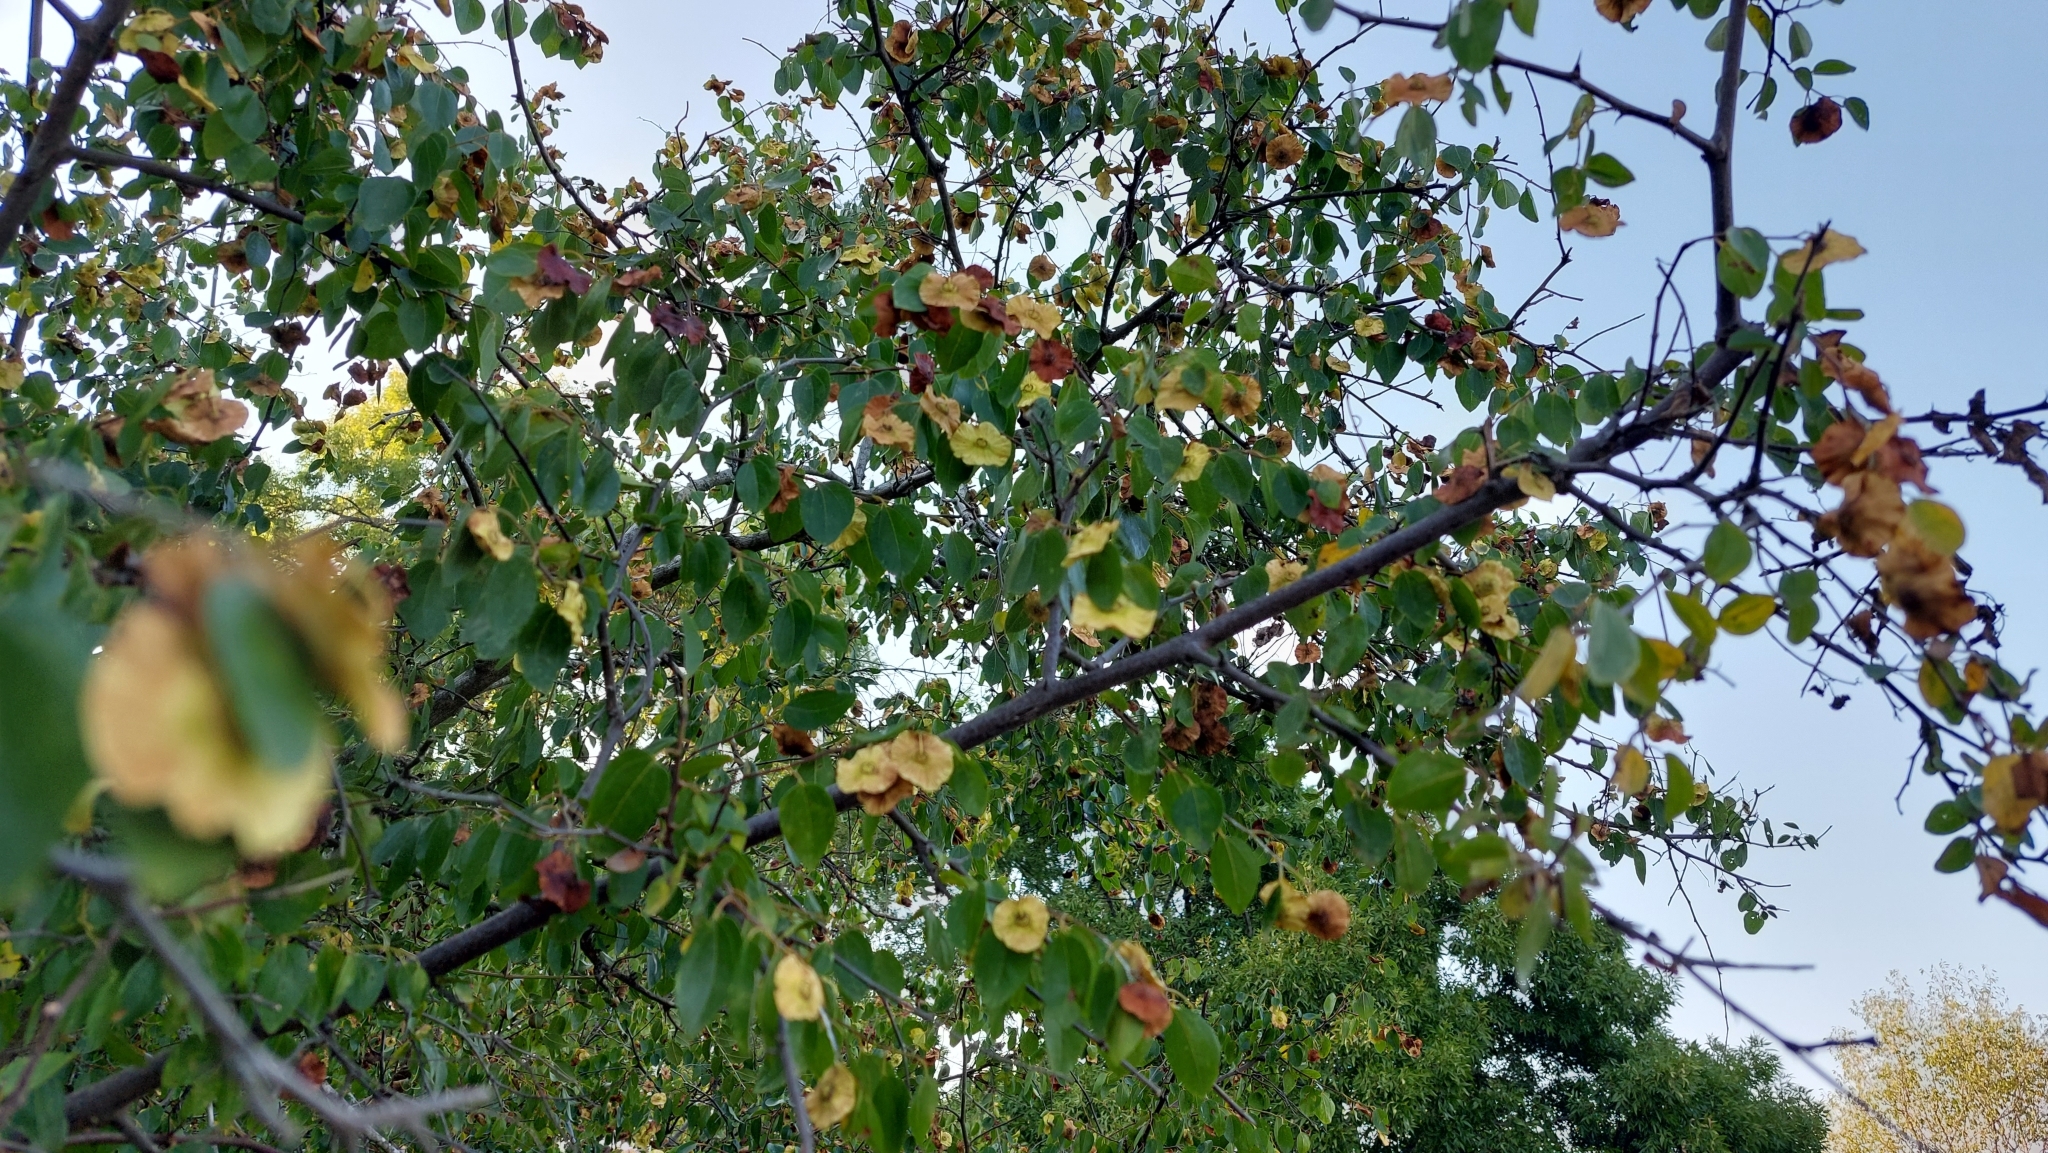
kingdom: Plantae
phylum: Tracheophyta
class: Magnoliopsida
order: Rosales
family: Rhamnaceae
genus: Paliurus
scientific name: Paliurus spina-christi
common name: Jeruselem thorn
